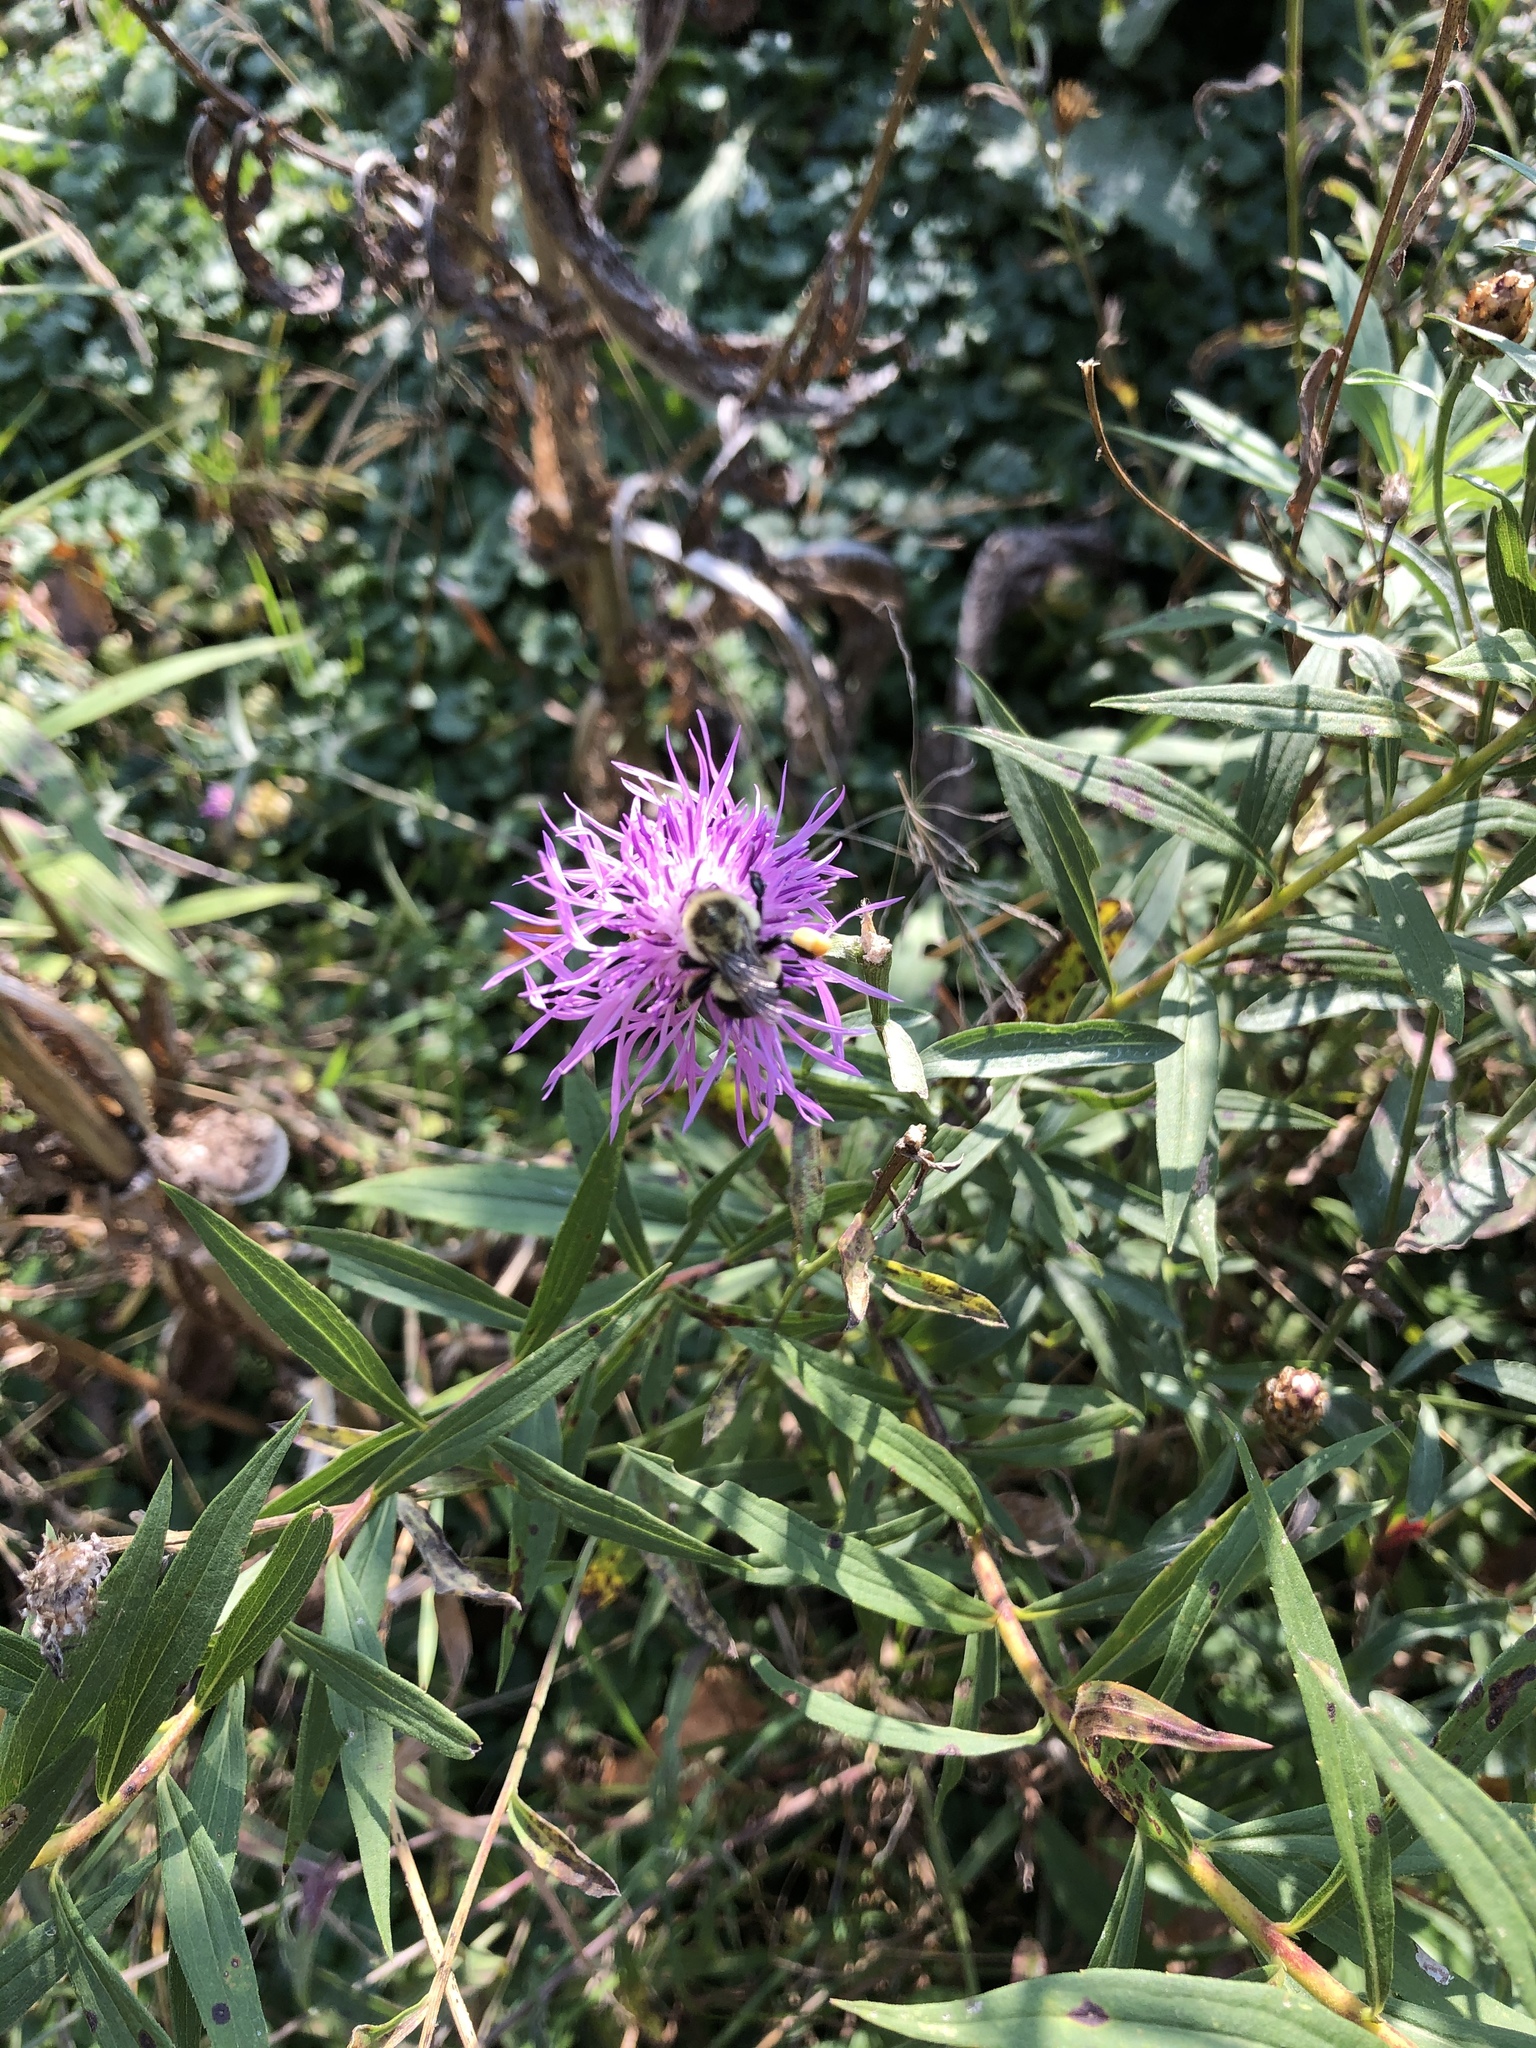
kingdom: Animalia
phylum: Arthropoda
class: Insecta
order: Hymenoptera
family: Apidae
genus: Bombus
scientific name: Bombus impatiens
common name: Common eastern bumble bee
